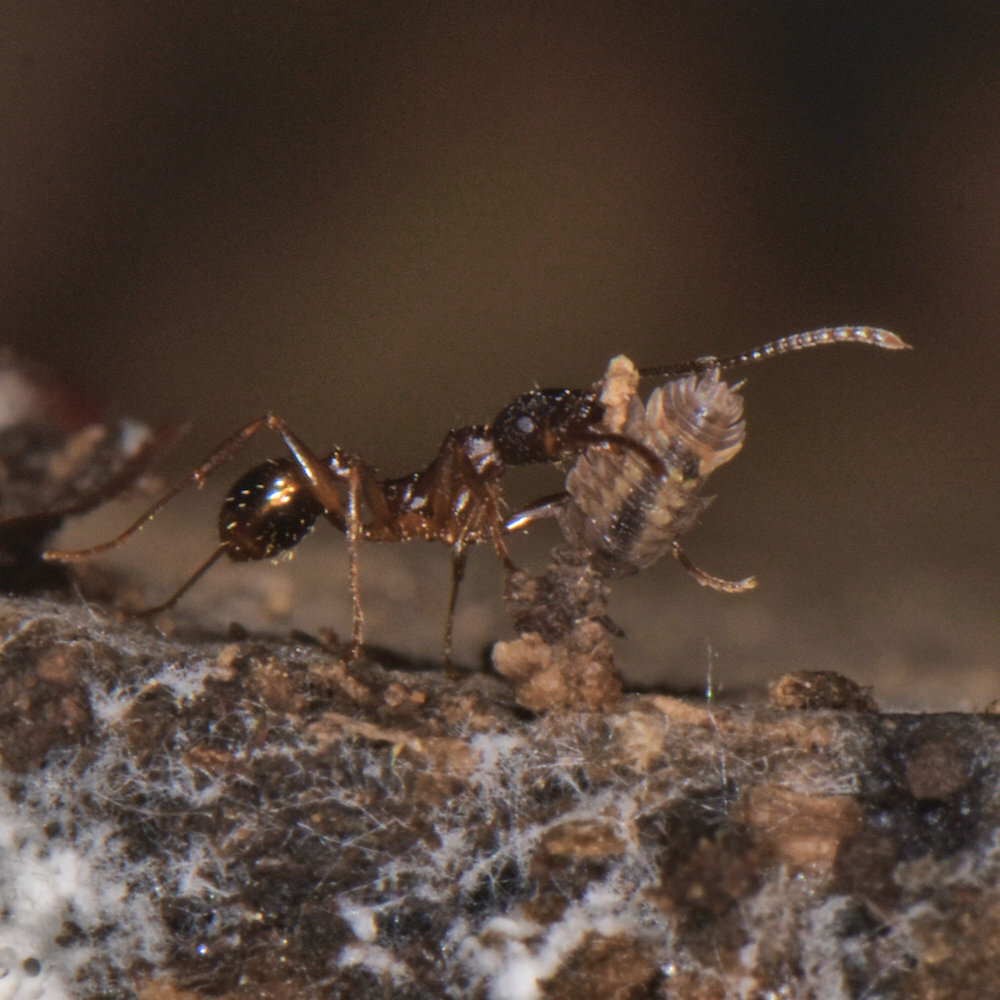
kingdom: Animalia
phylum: Arthropoda
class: Insecta
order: Hymenoptera
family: Formicidae
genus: Aphaenogaster
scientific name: Aphaenogaster rudis
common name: Winnow ant
